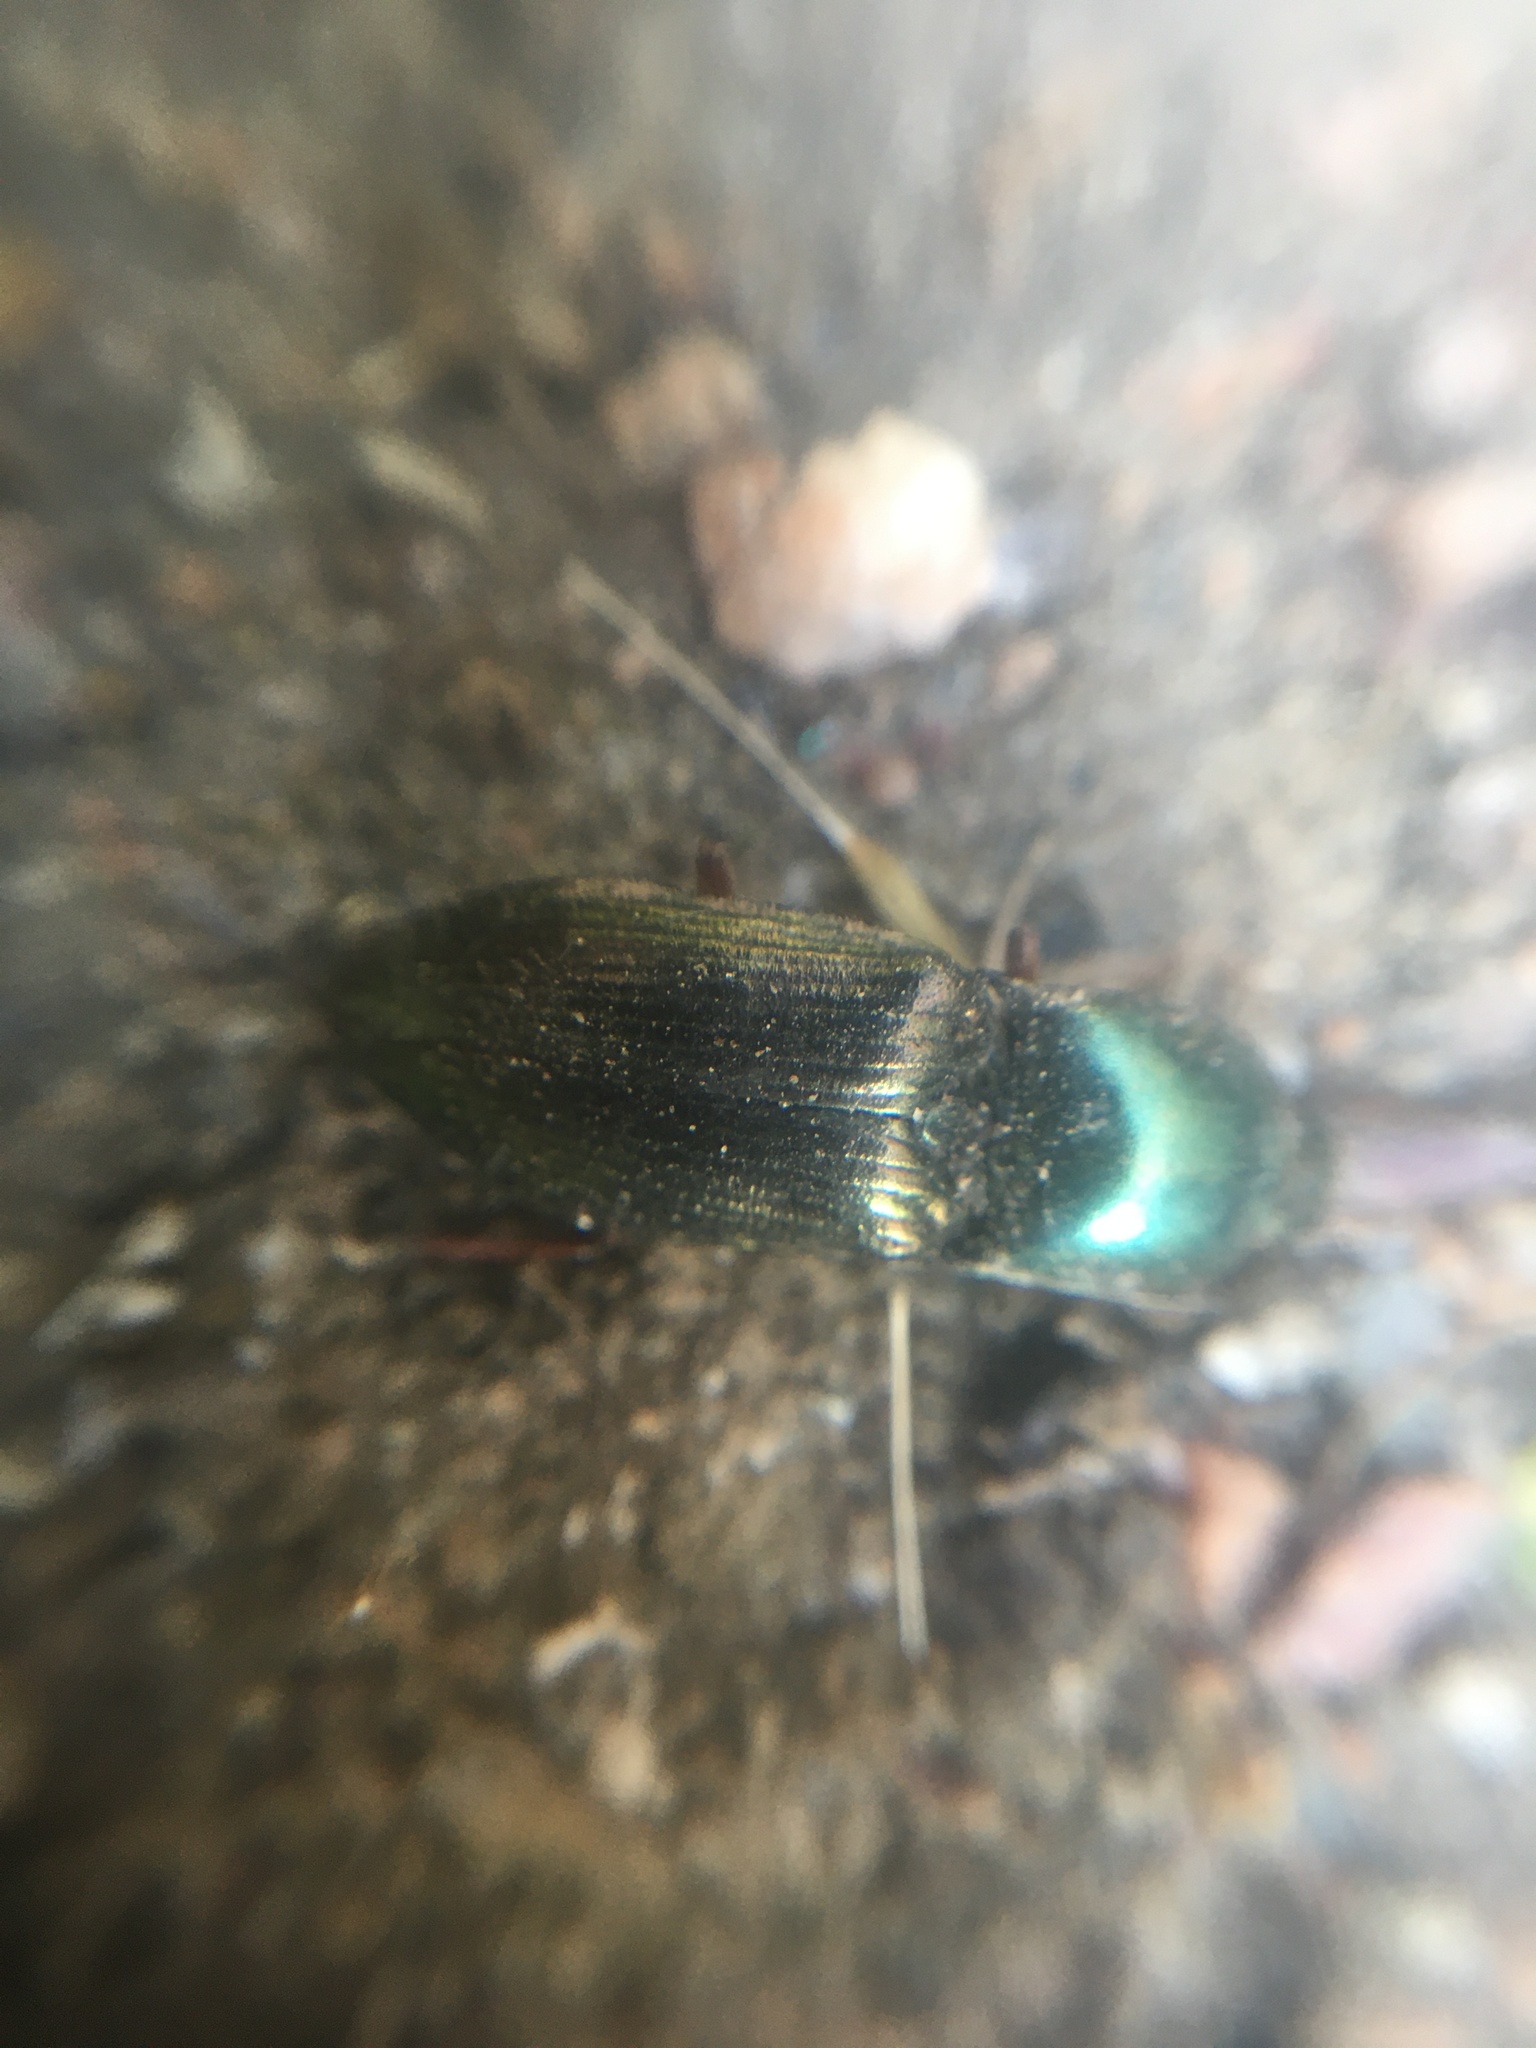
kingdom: Animalia
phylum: Arthropoda
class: Insecta
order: Coleoptera
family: Elateridae
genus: Selatosomus
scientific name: Selatosomus aeneus
